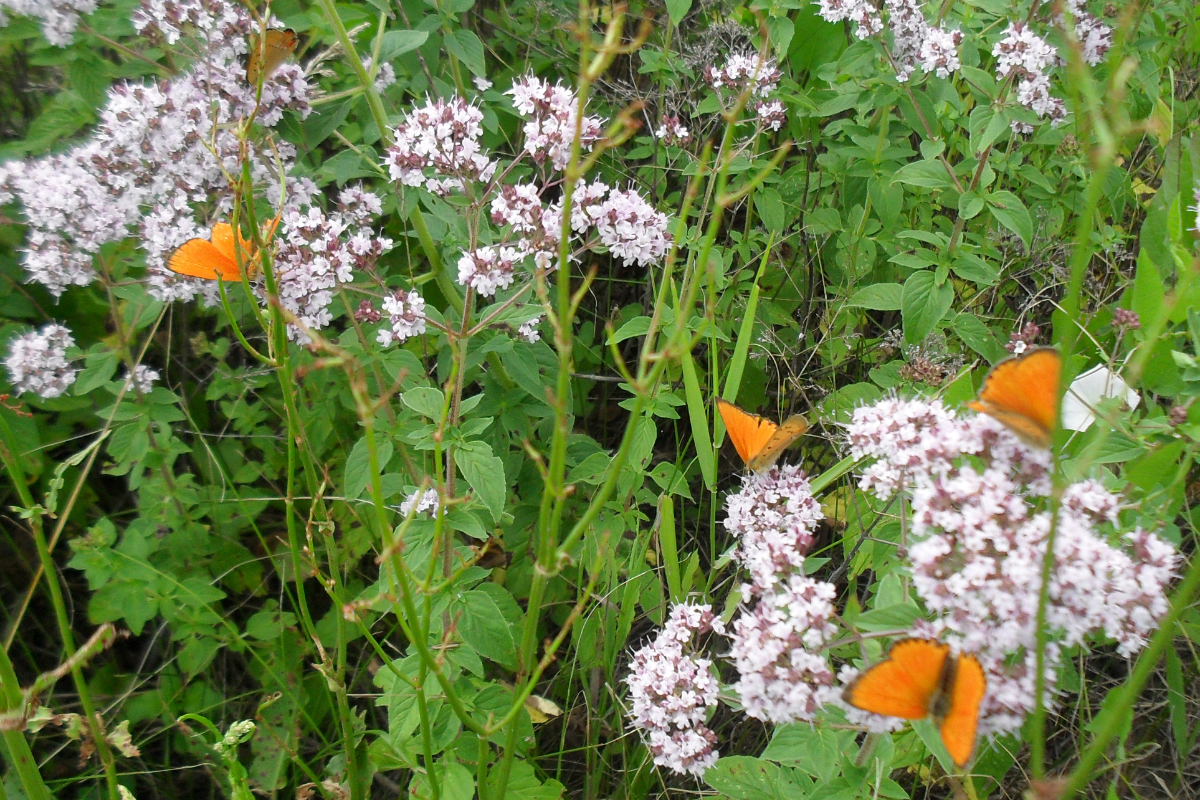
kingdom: Animalia
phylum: Arthropoda
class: Insecta
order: Lepidoptera
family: Lycaenidae
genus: Lycaena
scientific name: Lycaena virgaureae
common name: Scarce copper
